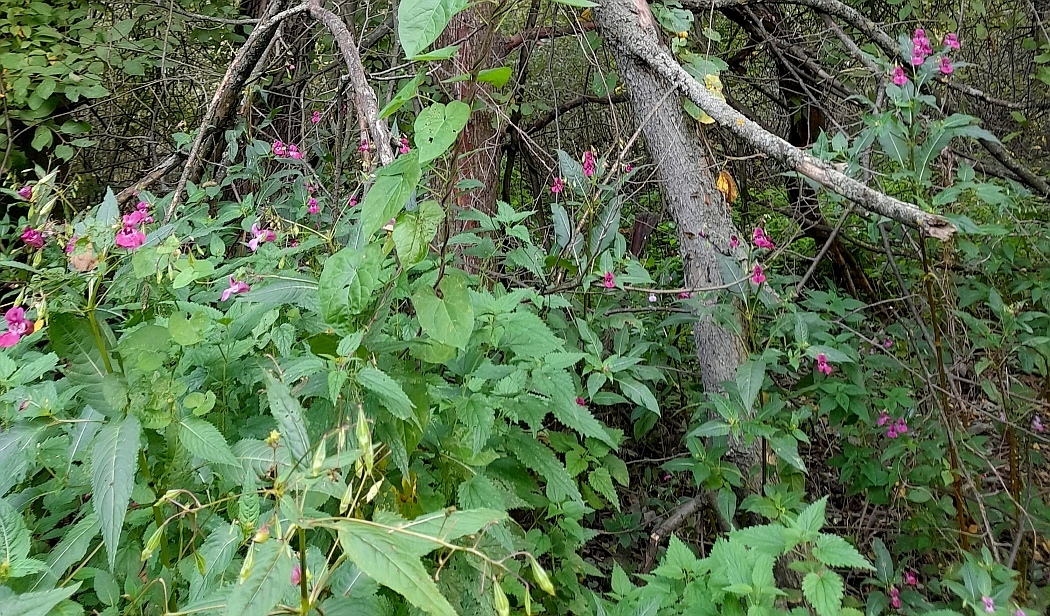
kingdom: Plantae
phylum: Tracheophyta
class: Magnoliopsida
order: Ericales
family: Balsaminaceae
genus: Impatiens
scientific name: Impatiens glandulifera
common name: Himalayan balsam
